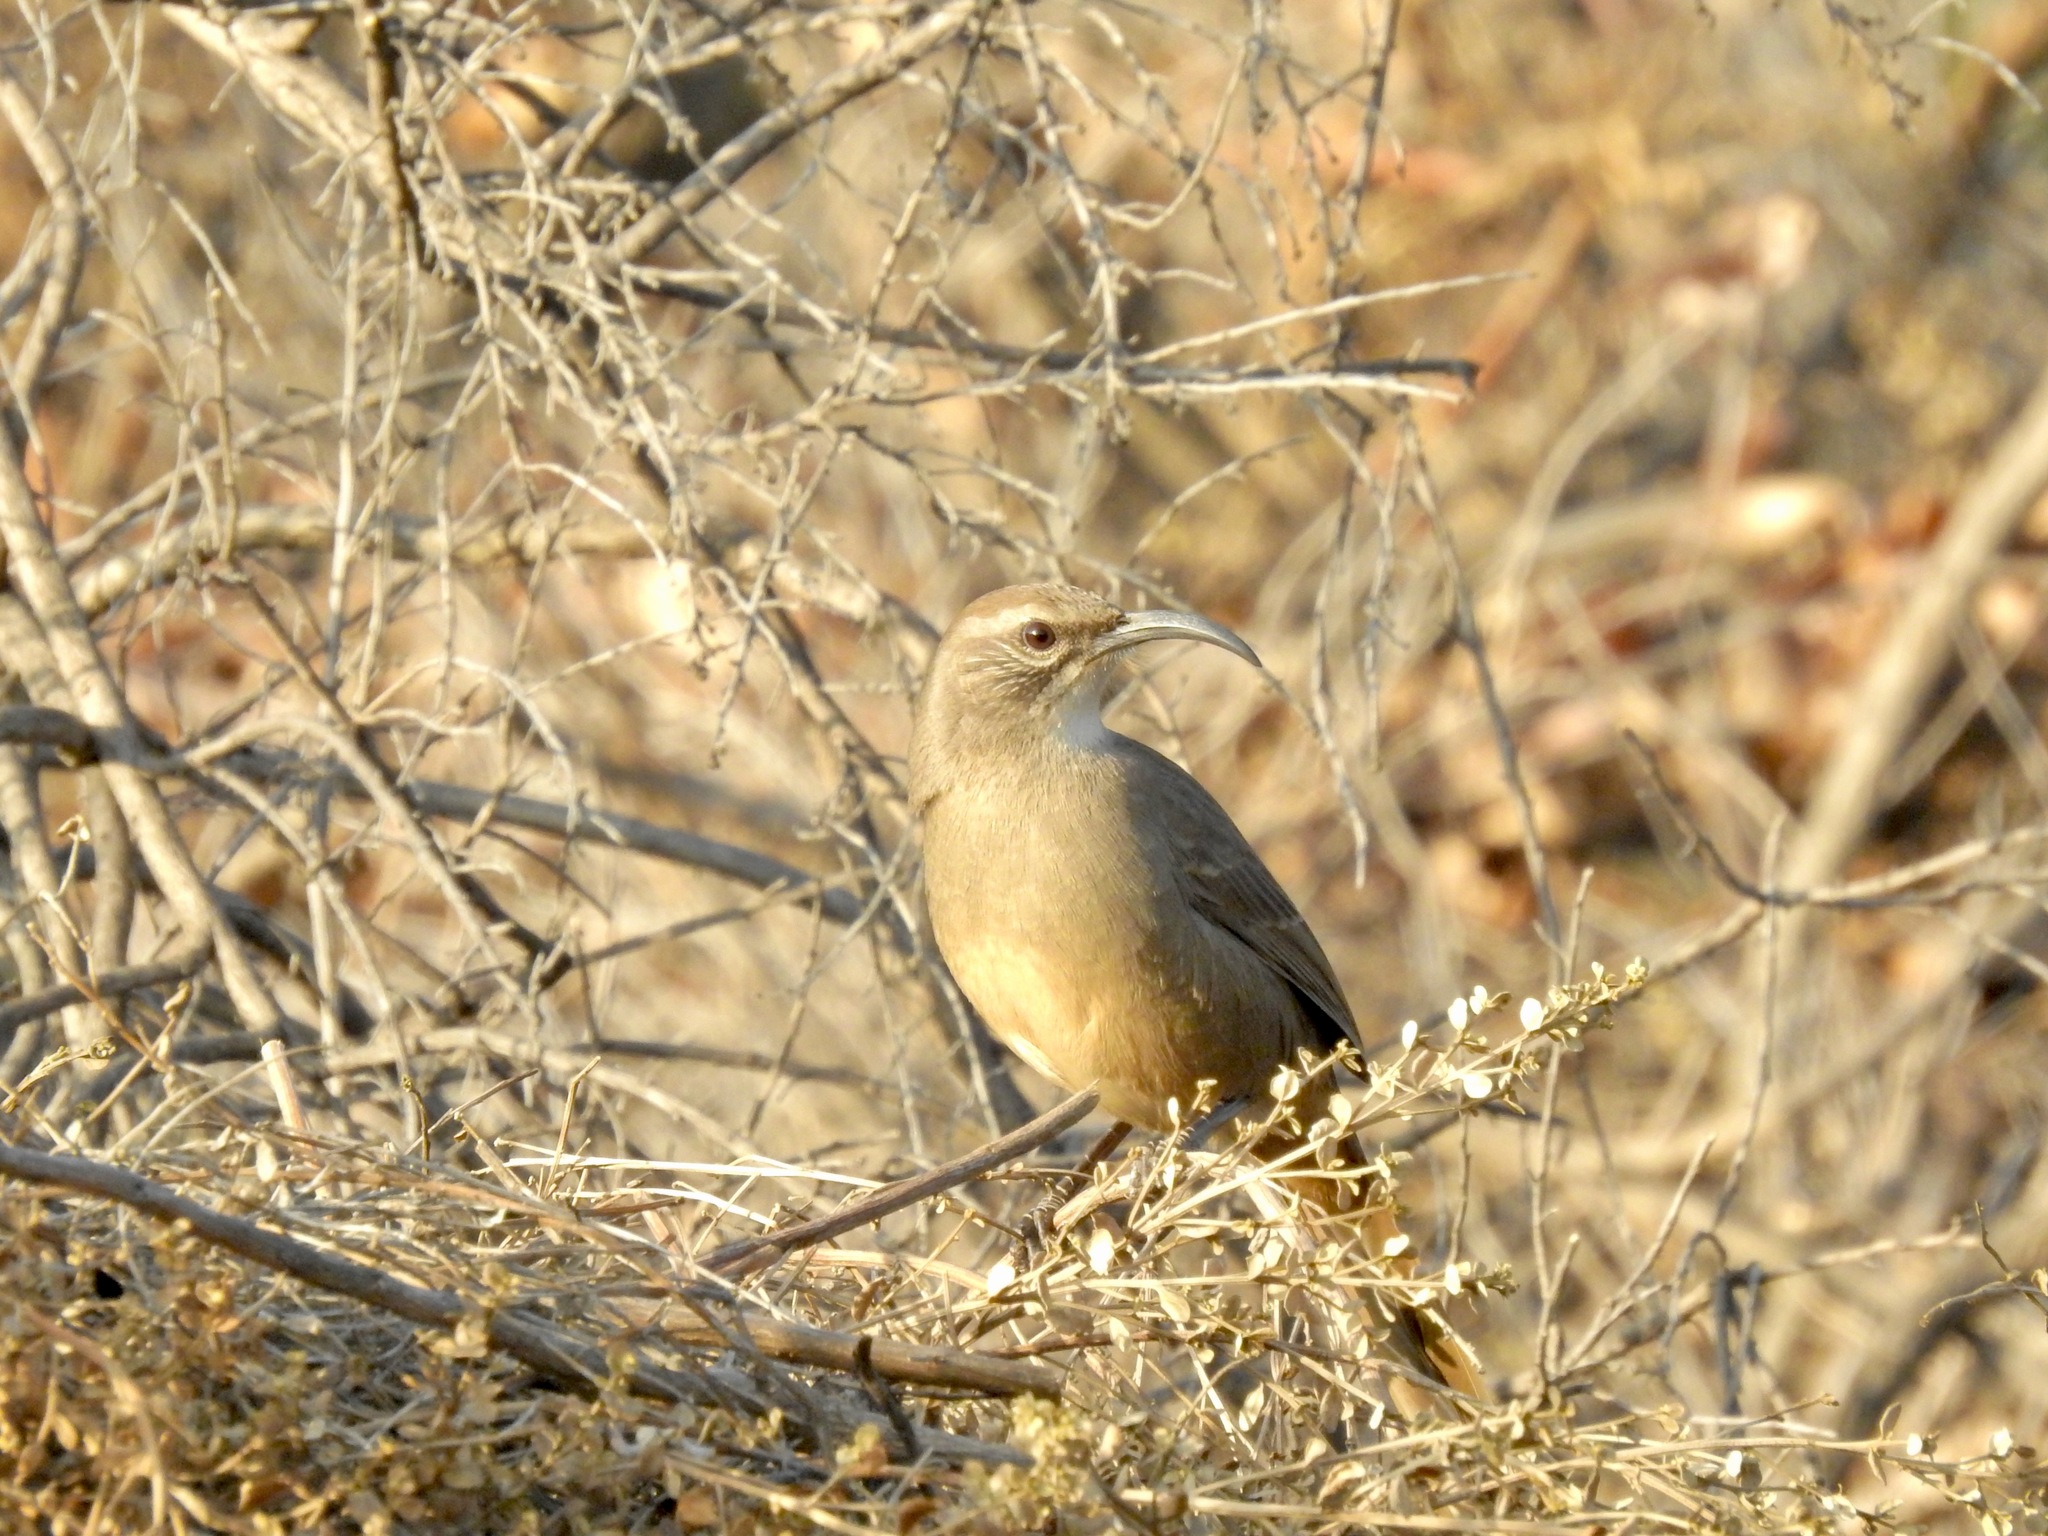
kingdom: Animalia
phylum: Chordata
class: Aves
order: Passeriformes
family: Mimidae
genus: Toxostoma
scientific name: Toxostoma redivivum
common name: California thrasher
